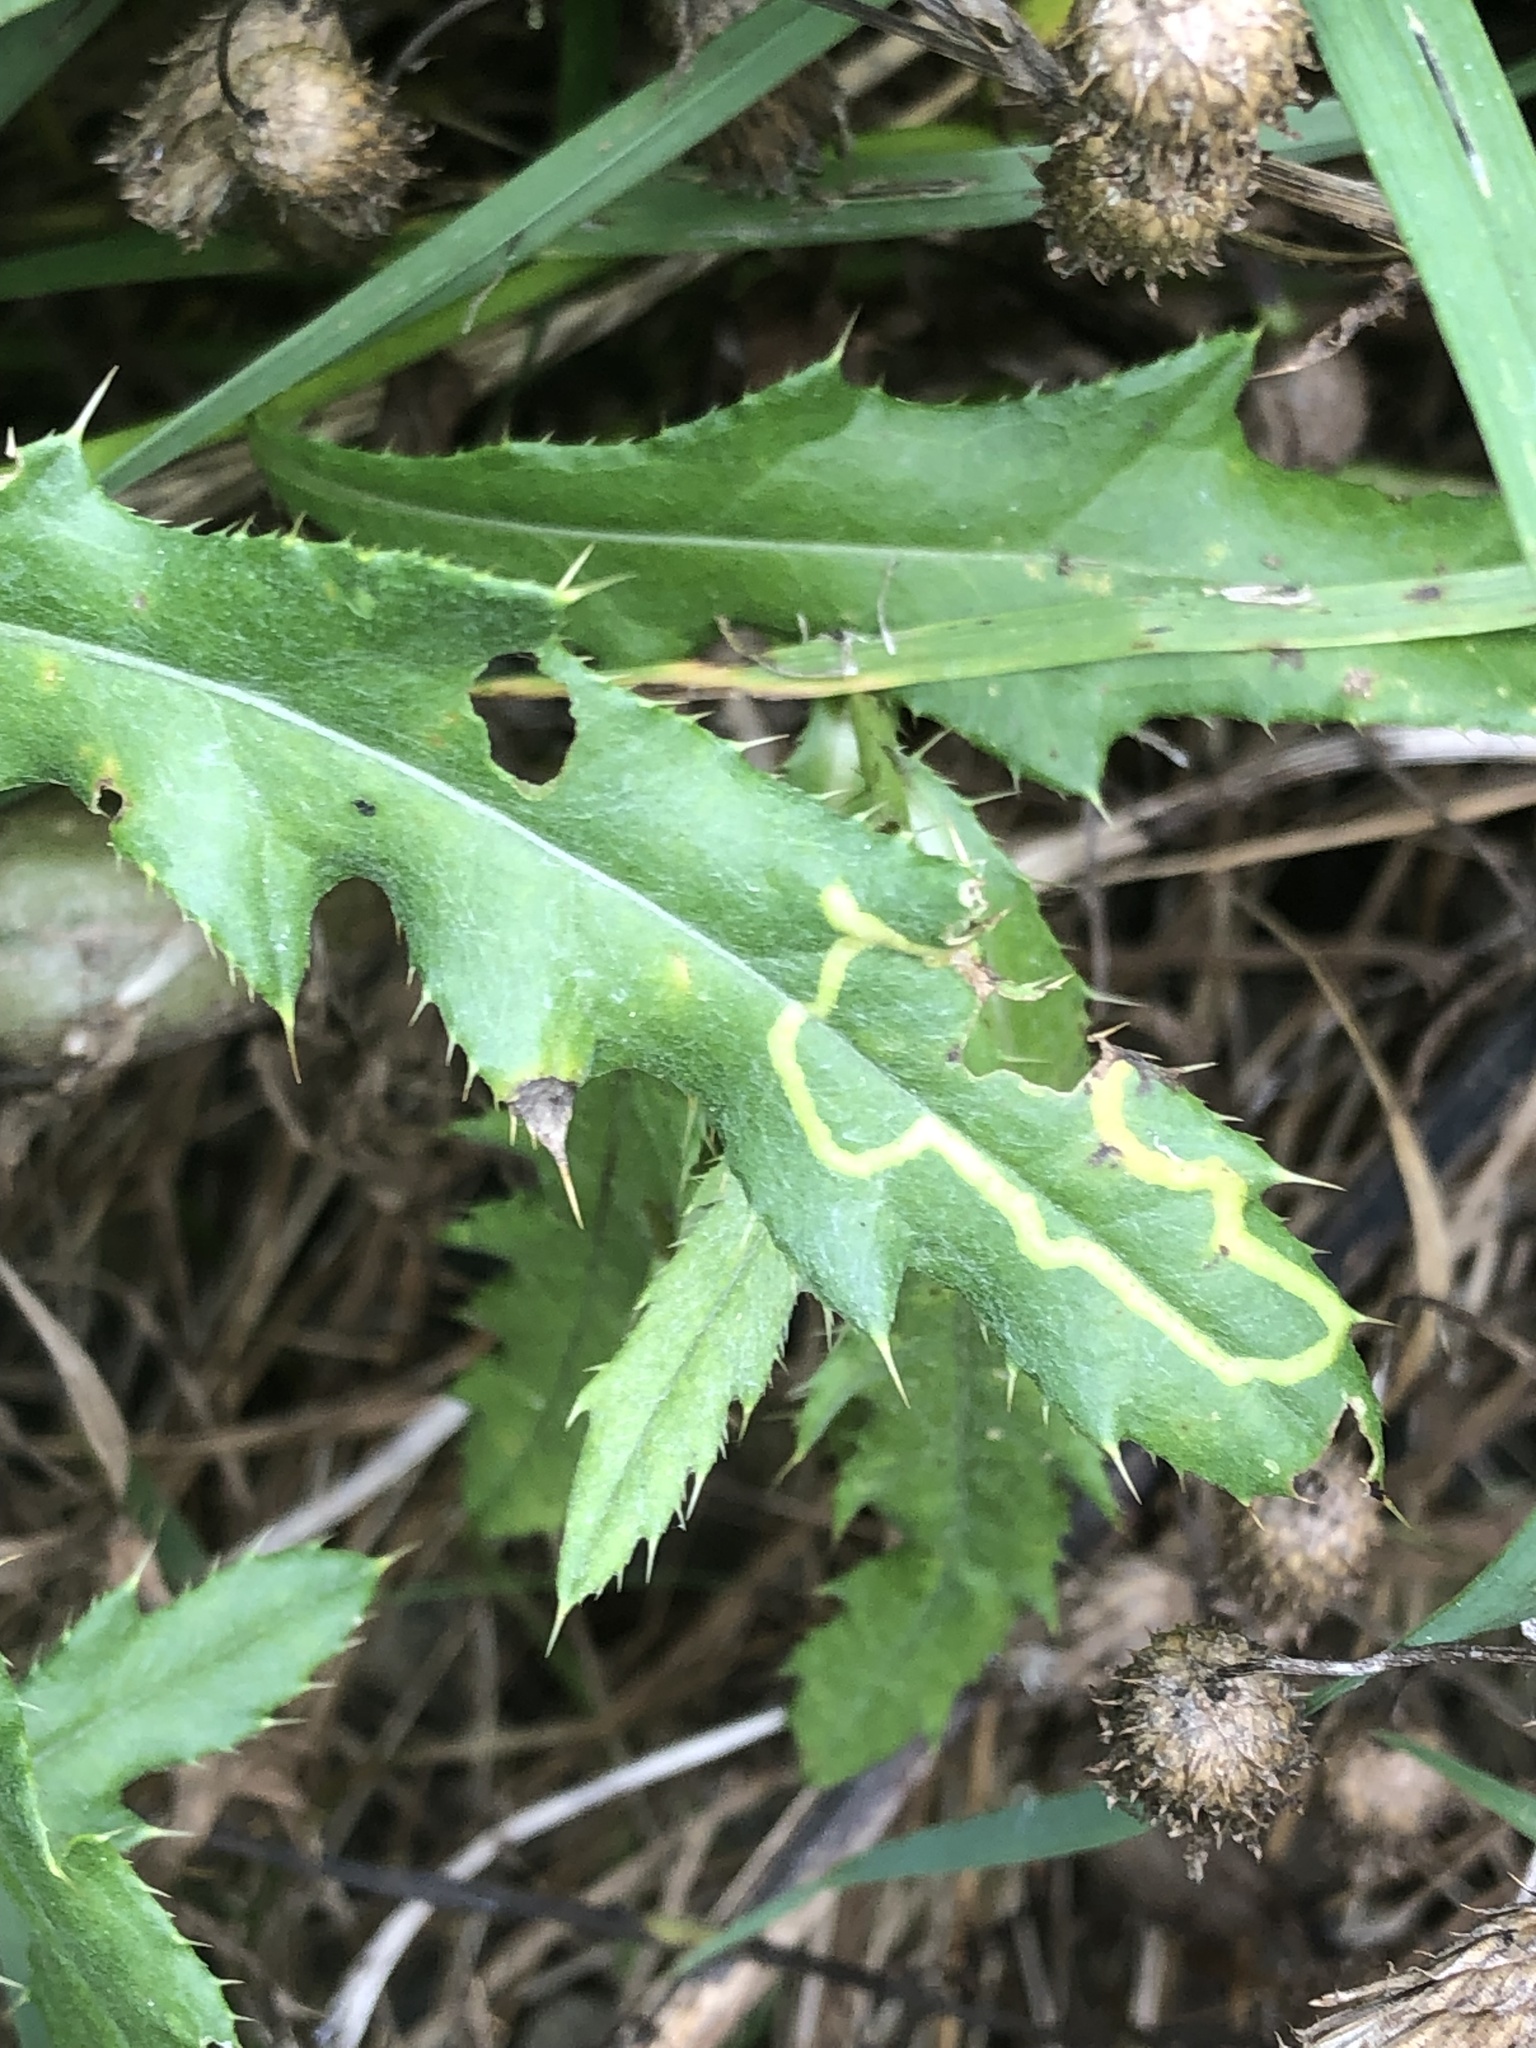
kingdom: Animalia
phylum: Arthropoda
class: Insecta
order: Diptera
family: Agromyzidae
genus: Phytomyza
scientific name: Phytomyza spinaciae
